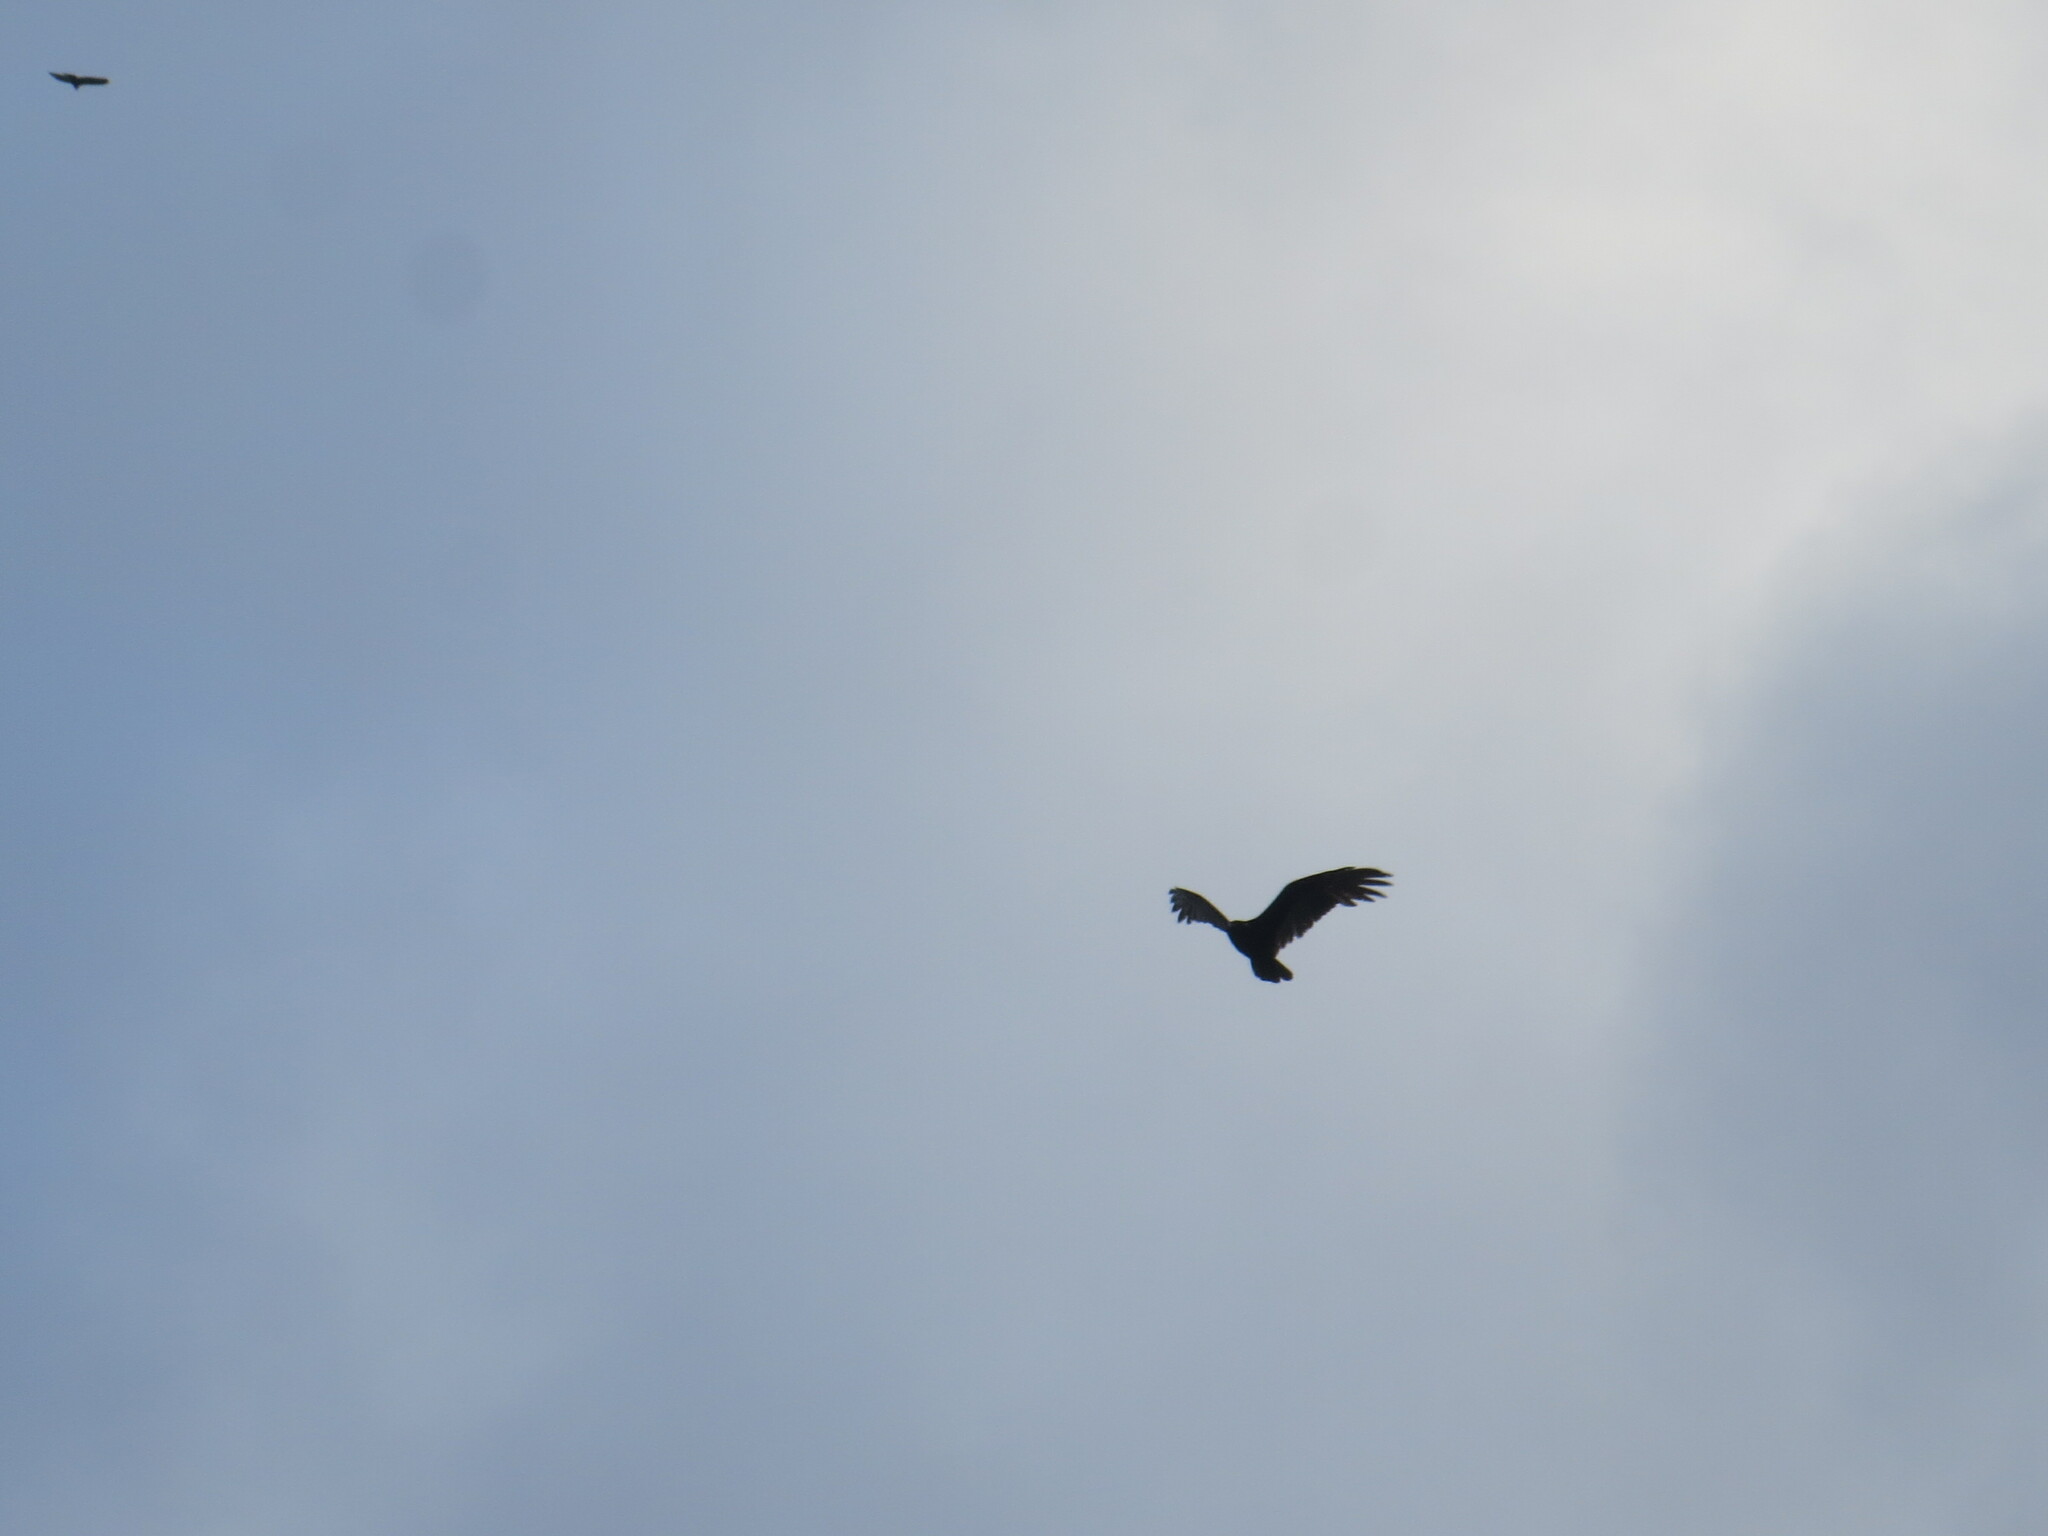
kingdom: Animalia
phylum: Chordata
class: Aves
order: Accipitriformes
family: Cathartidae
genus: Cathartes
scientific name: Cathartes aura
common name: Turkey vulture
